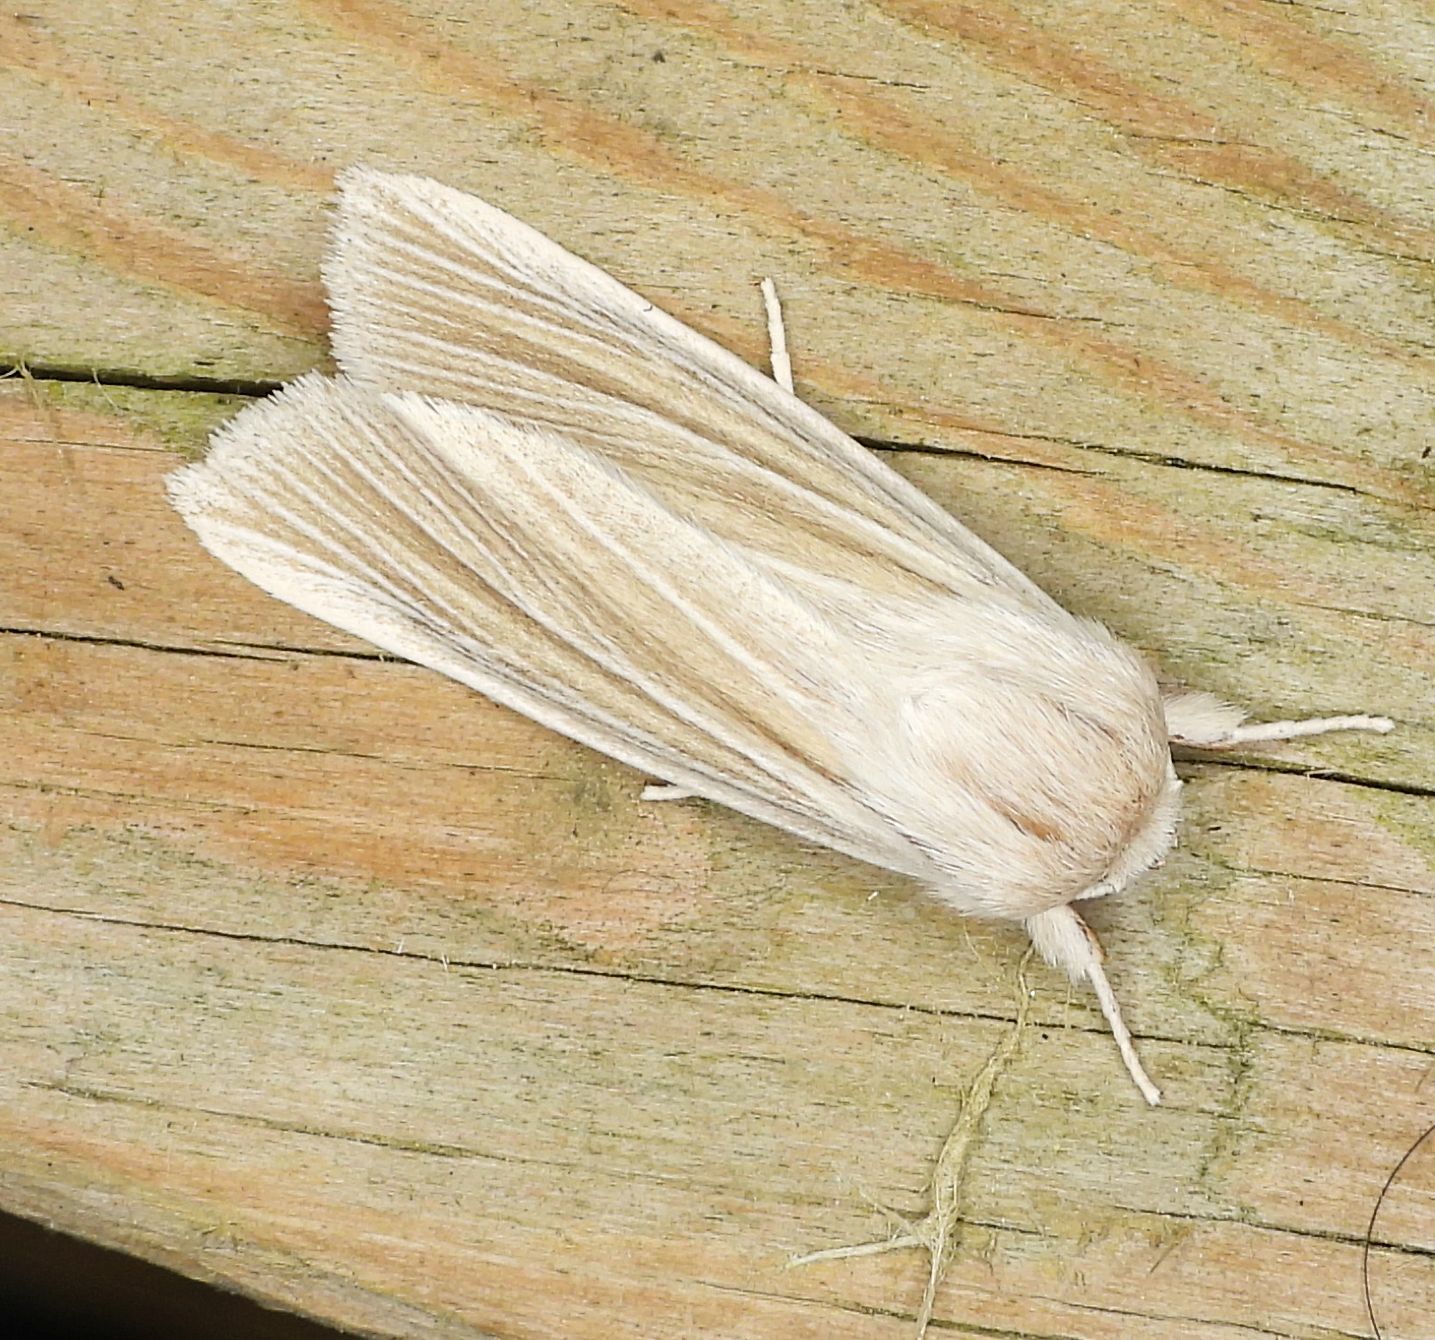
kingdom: Animalia
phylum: Arthropoda
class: Insecta
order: Lepidoptera
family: Noctuidae
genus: Acronicta
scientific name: Acronicta insularis
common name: Henry's marsh moth
